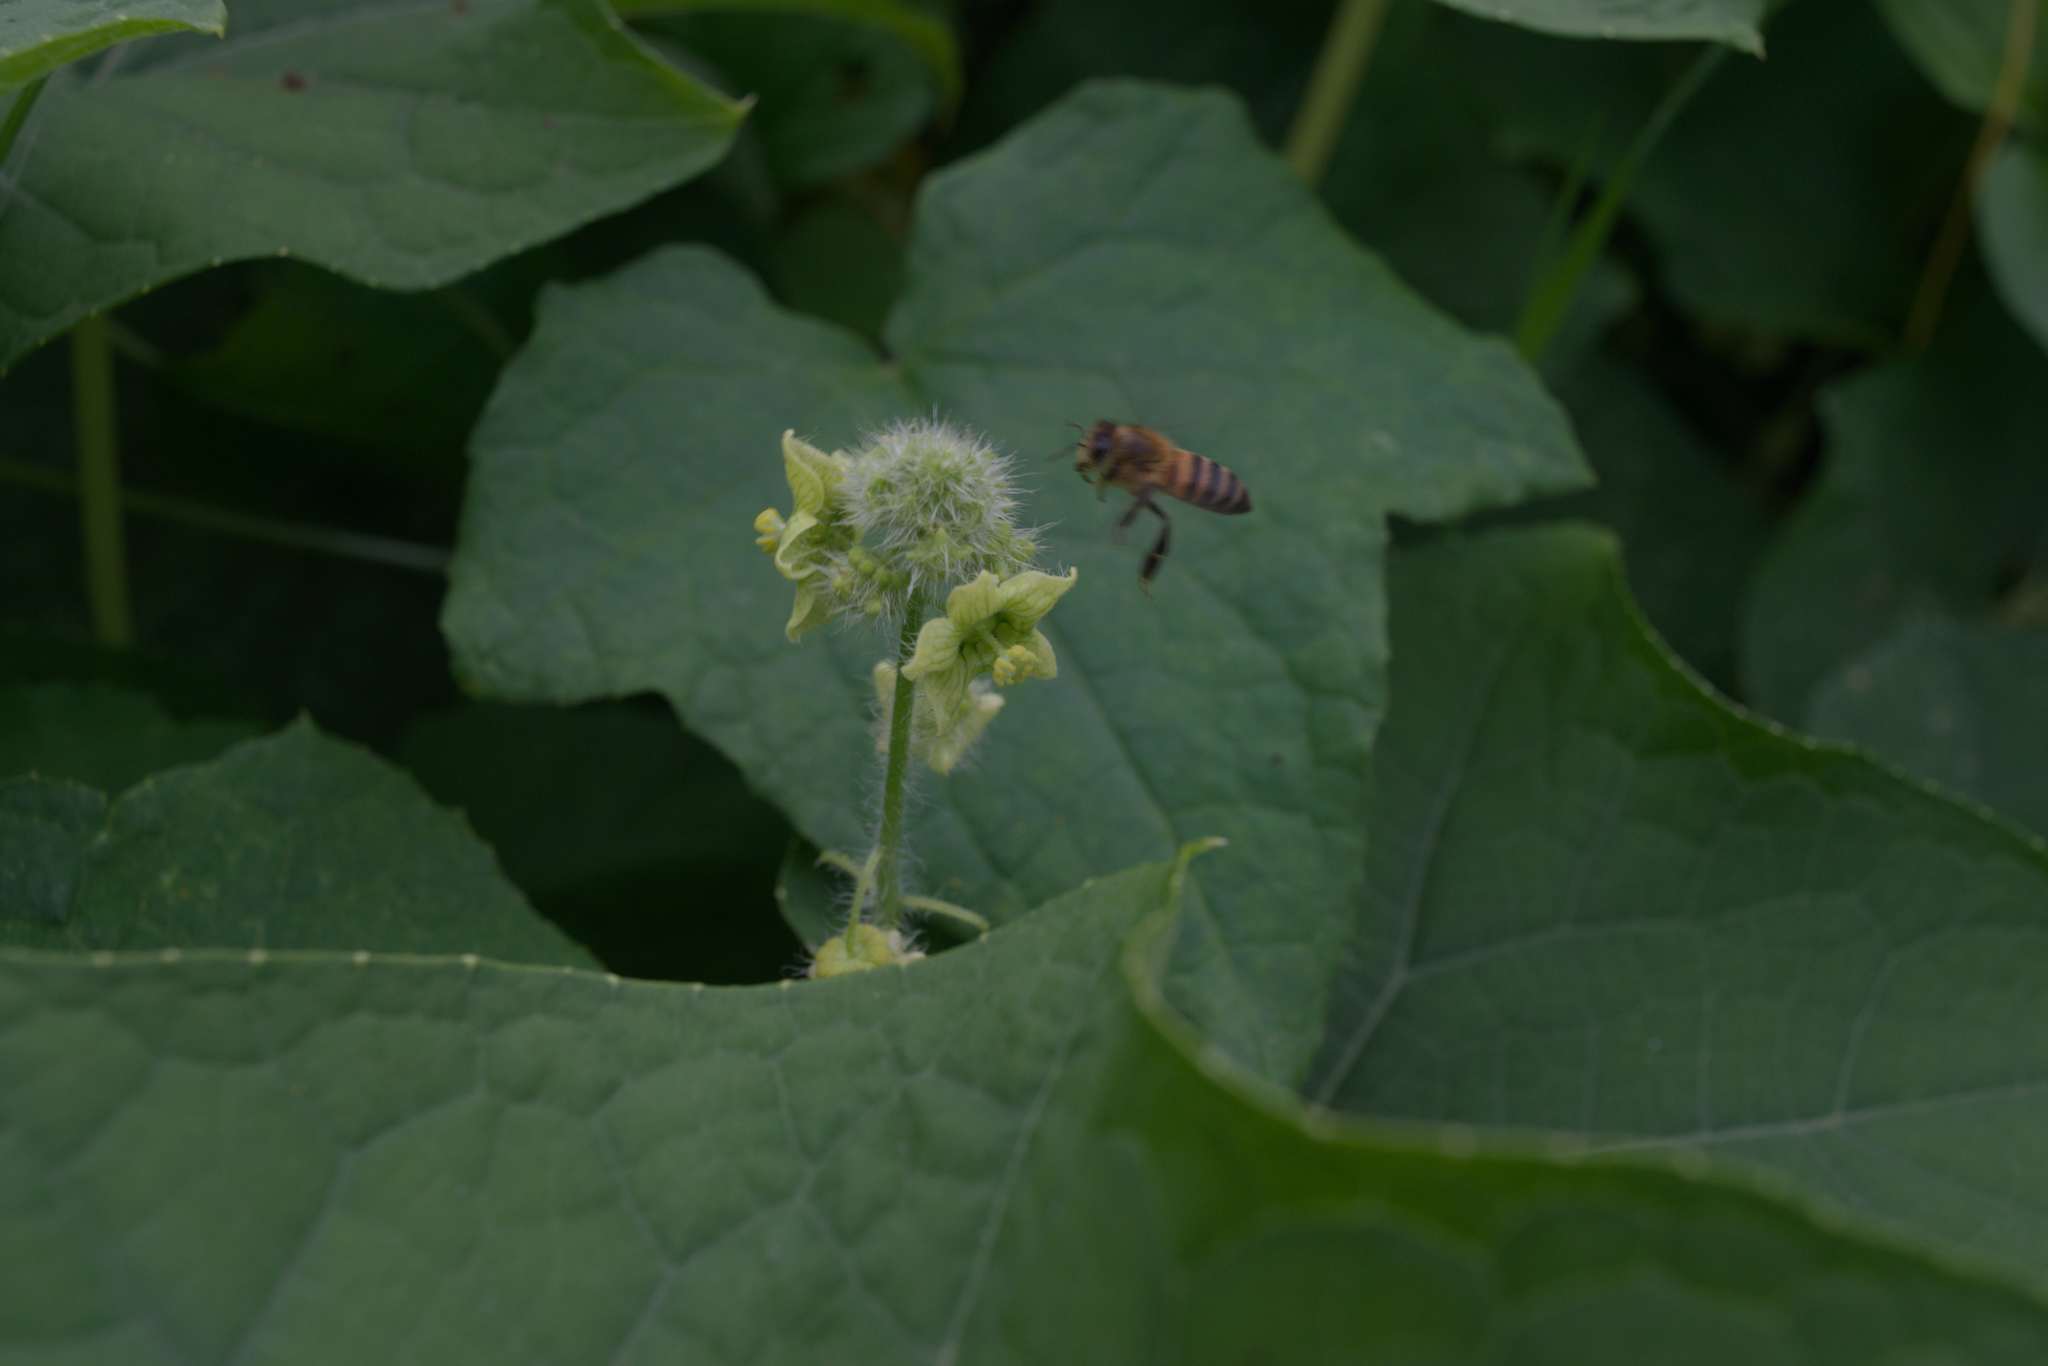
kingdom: Animalia
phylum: Arthropoda
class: Insecta
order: Hymenoptera
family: Apidae
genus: Apis
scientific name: Apis mellifera
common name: Honey bee
